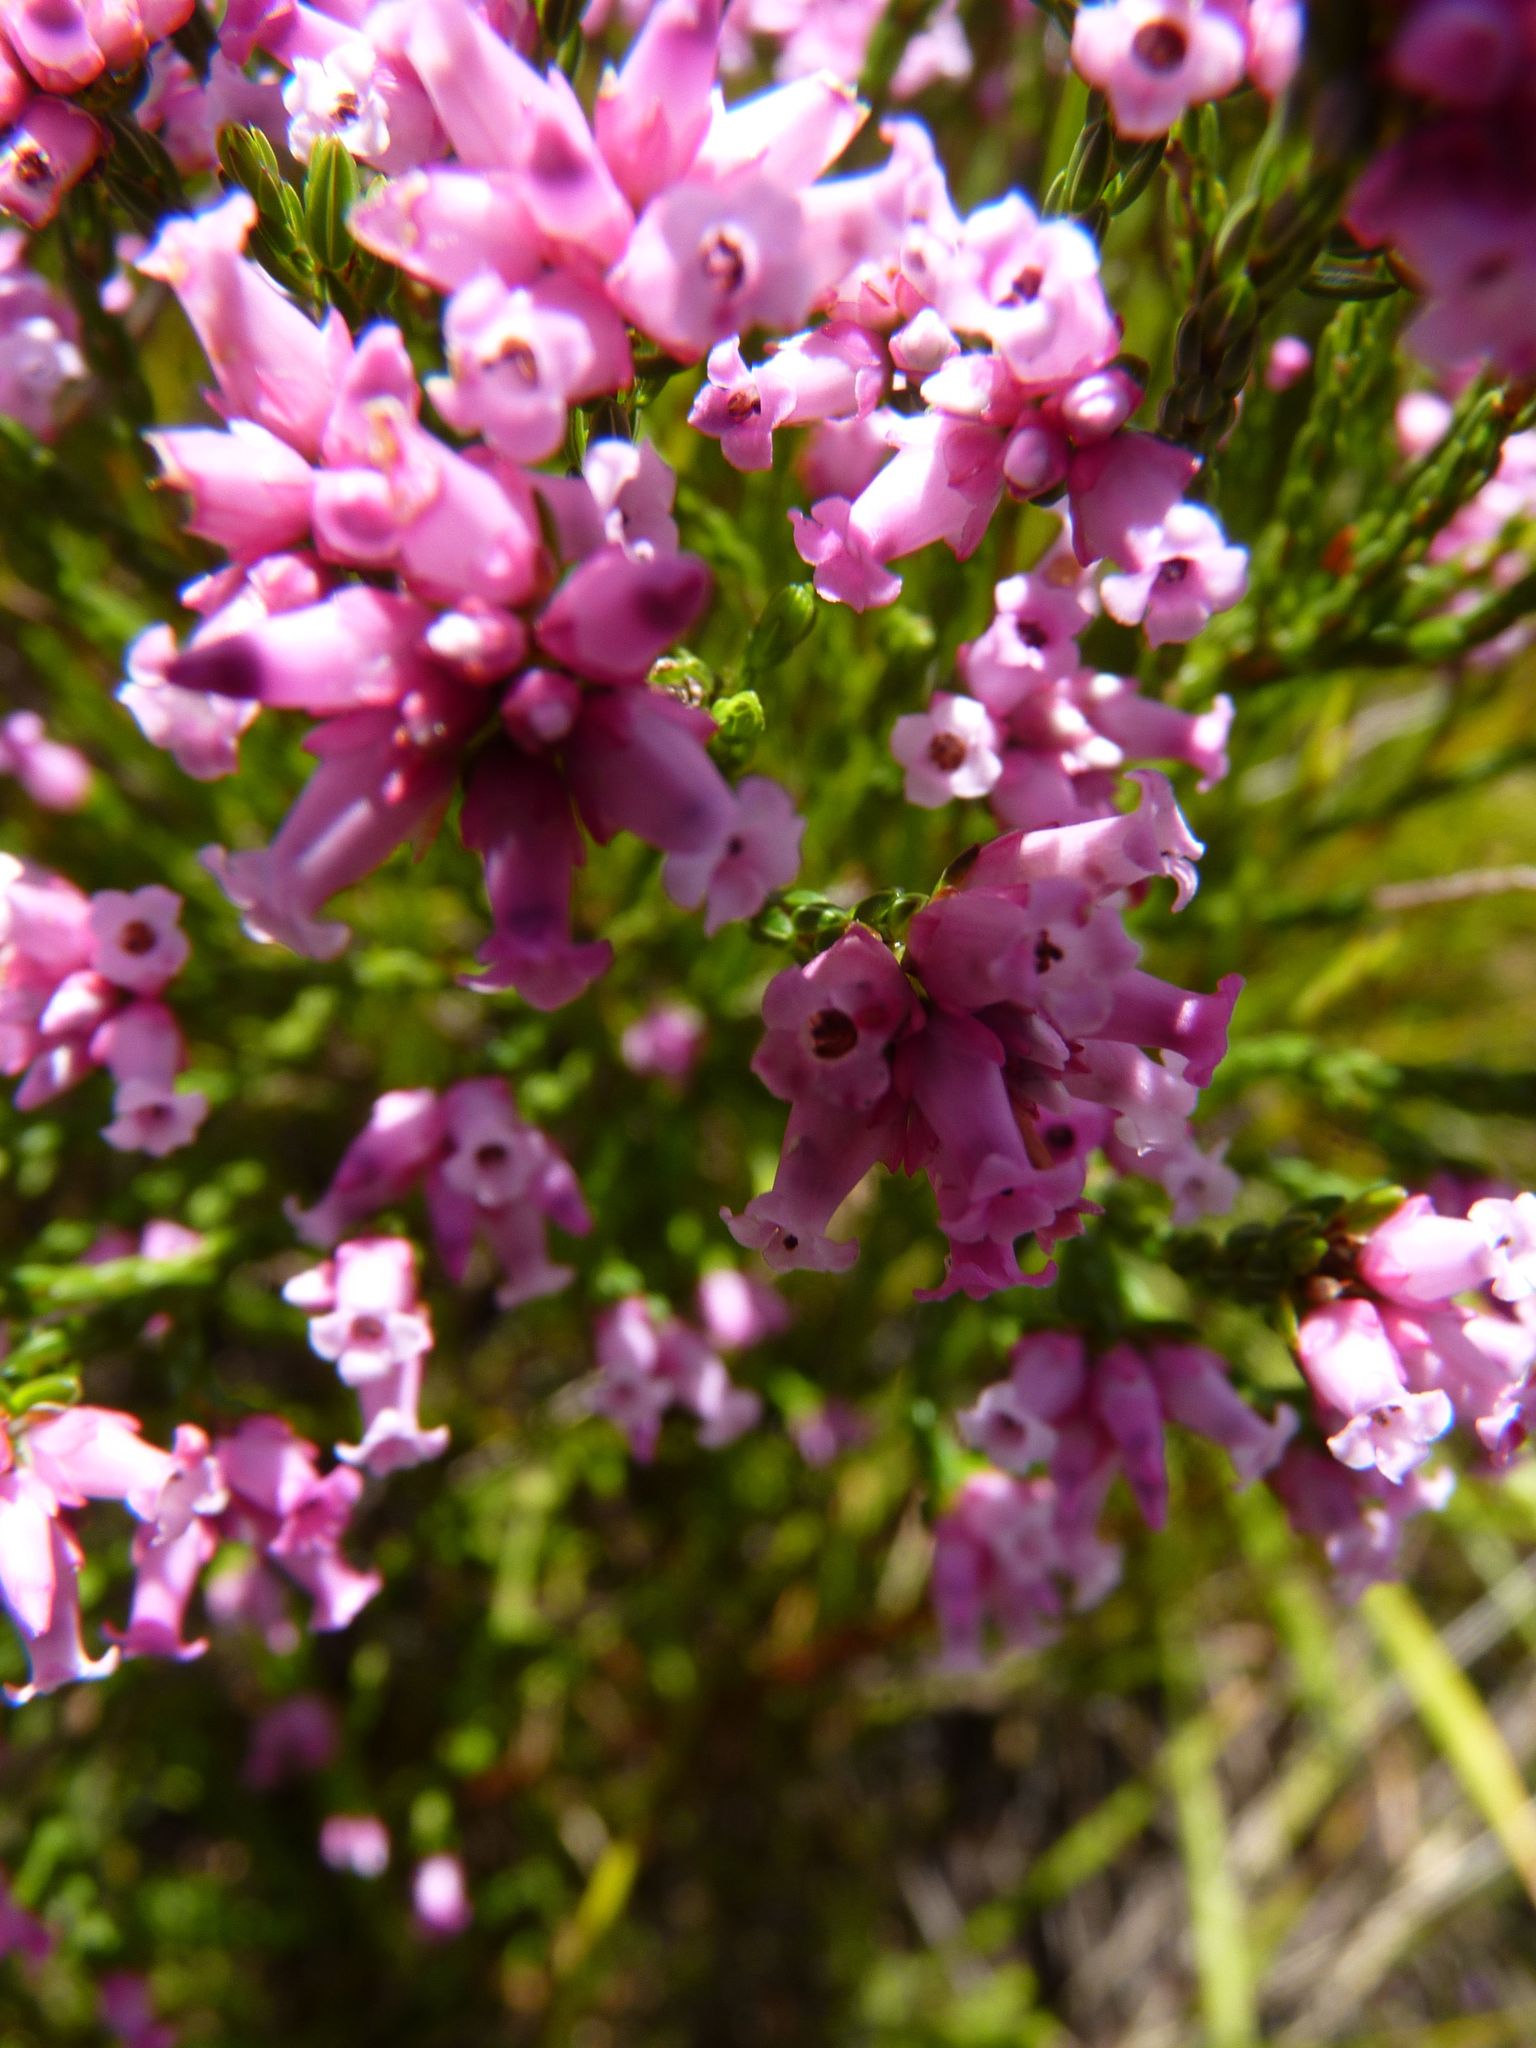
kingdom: Plantae
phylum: Tracheophyta
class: Magnoliopsida
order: Ericales
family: Ericaceae
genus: Erica
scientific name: Erica steinbergiana
